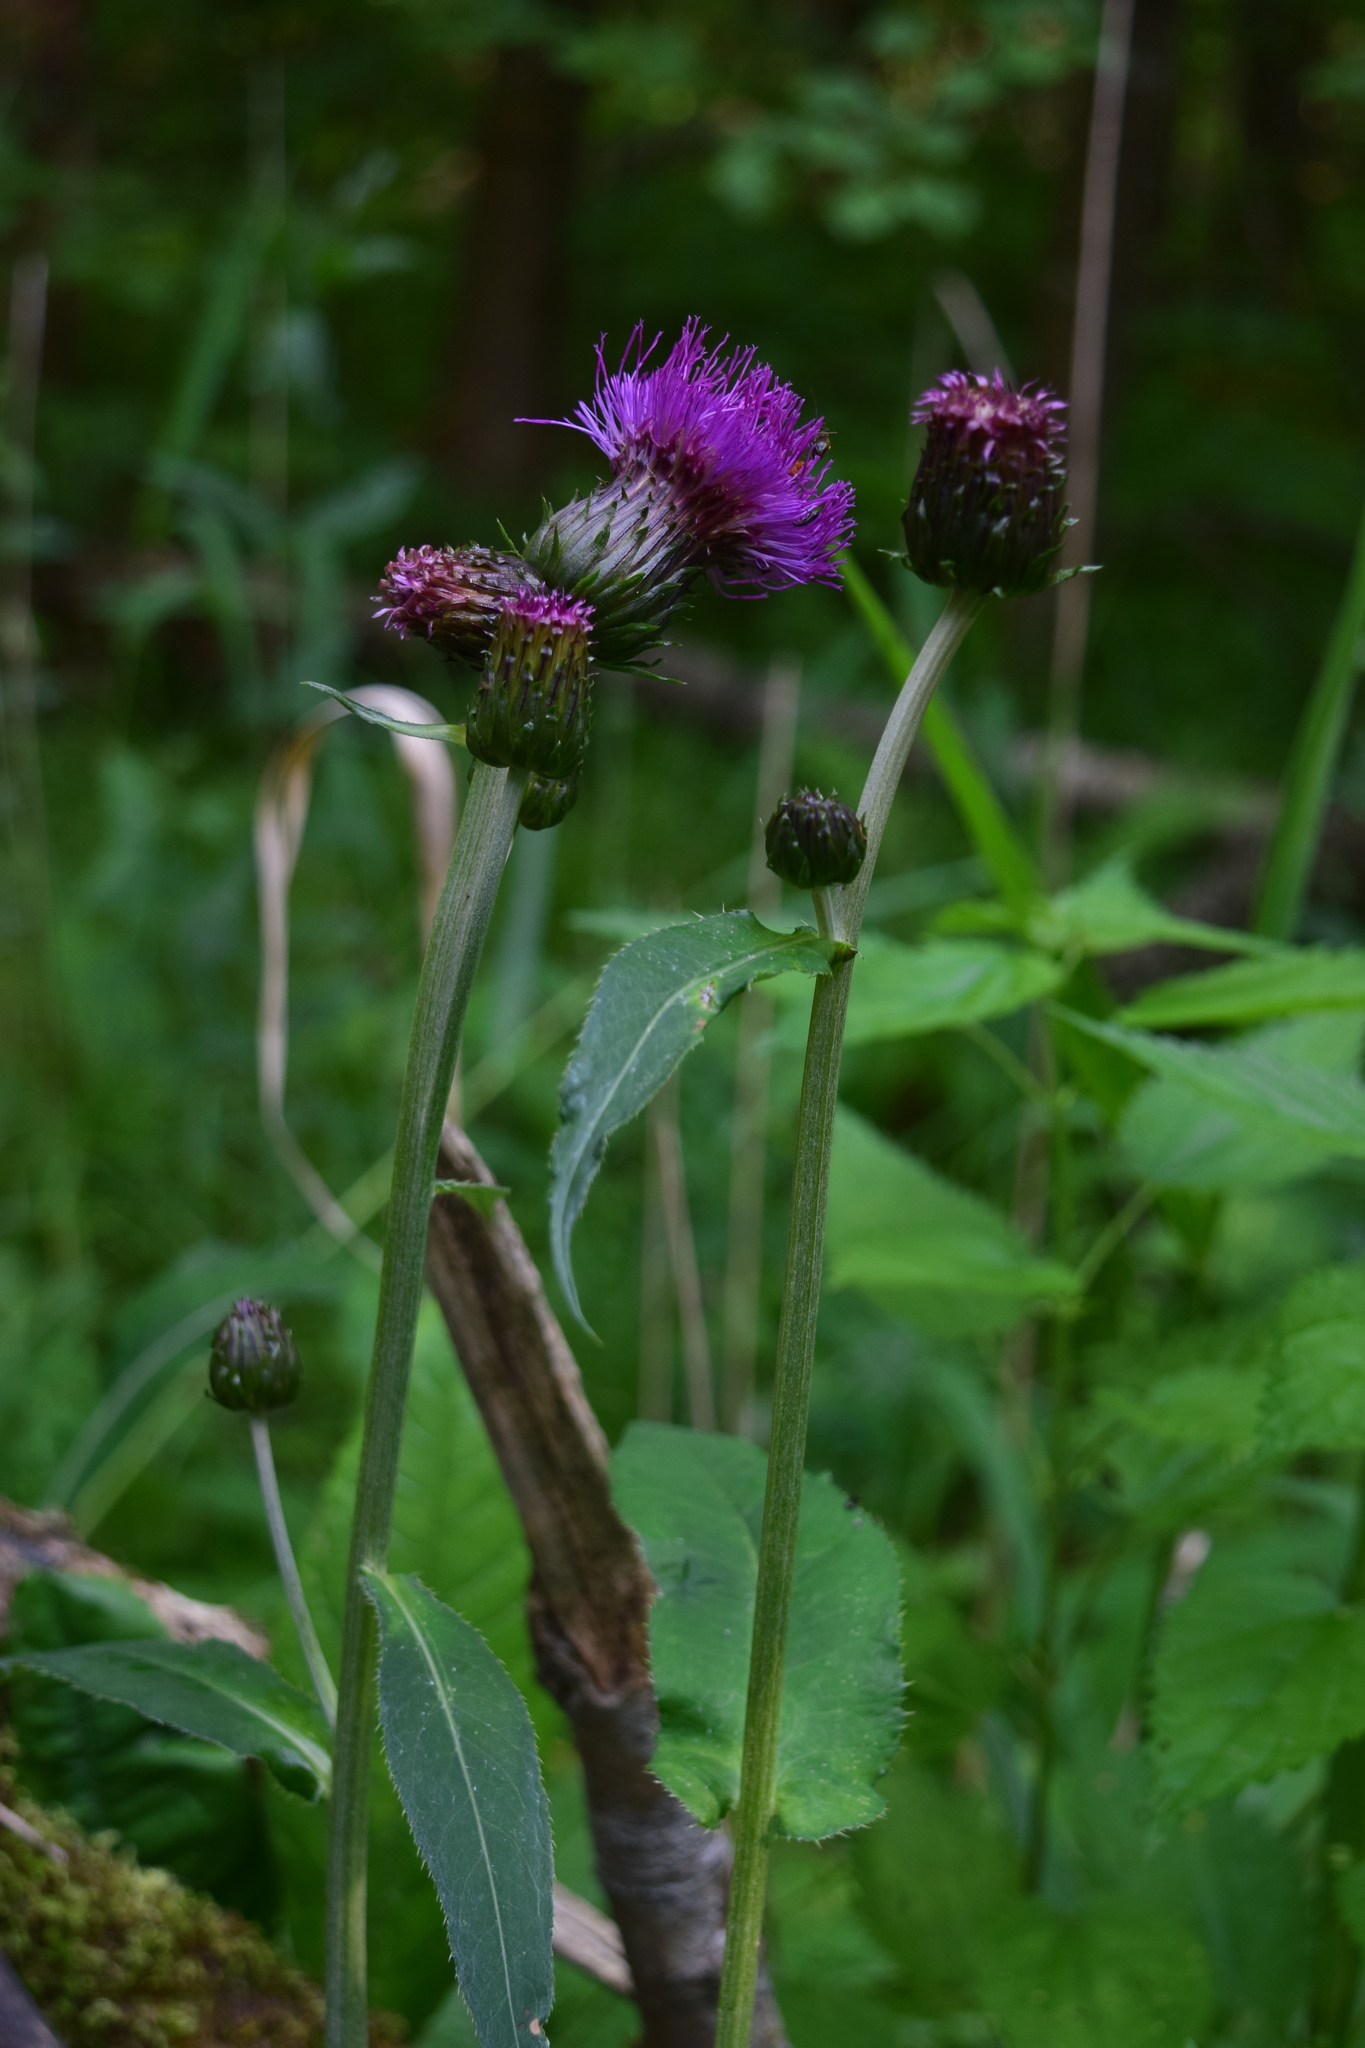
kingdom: Plantae
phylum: Tracheophyta
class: Magnoliopsida
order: Asterales
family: Asteraceae
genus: Cirsium
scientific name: Cirsium heterophyllum
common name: Melancholy thistle
